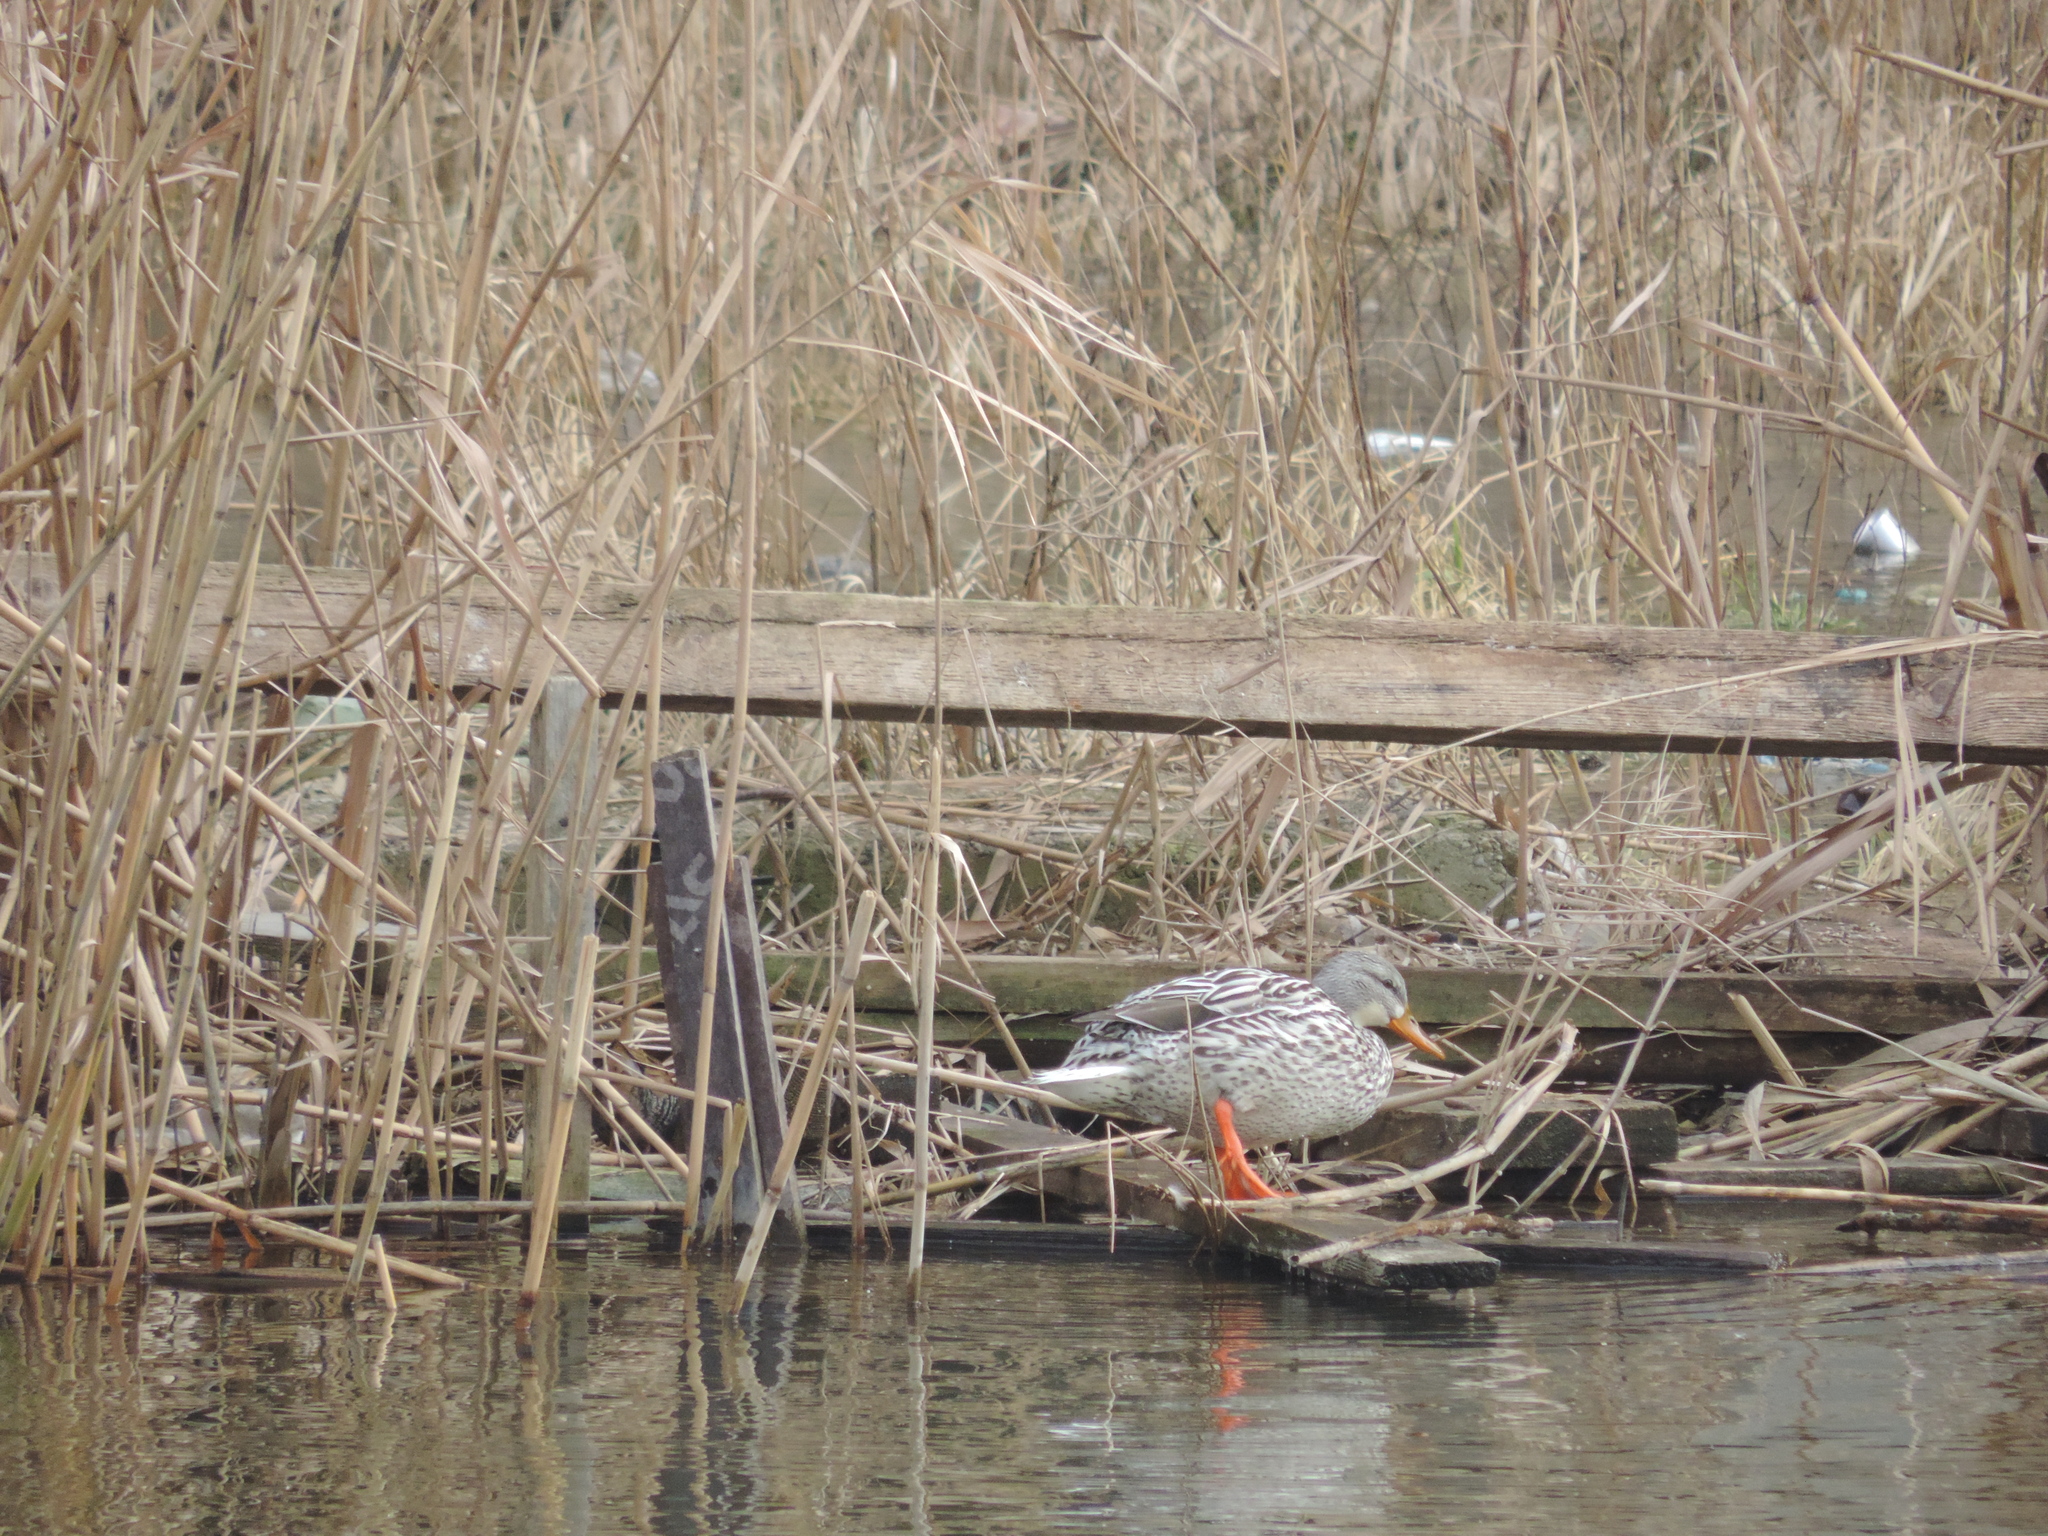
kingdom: Animalia
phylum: Chordata
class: Aves
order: Anseriformes
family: Anatidae
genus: Anas
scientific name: Anas platyrhynchos
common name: Mallard
